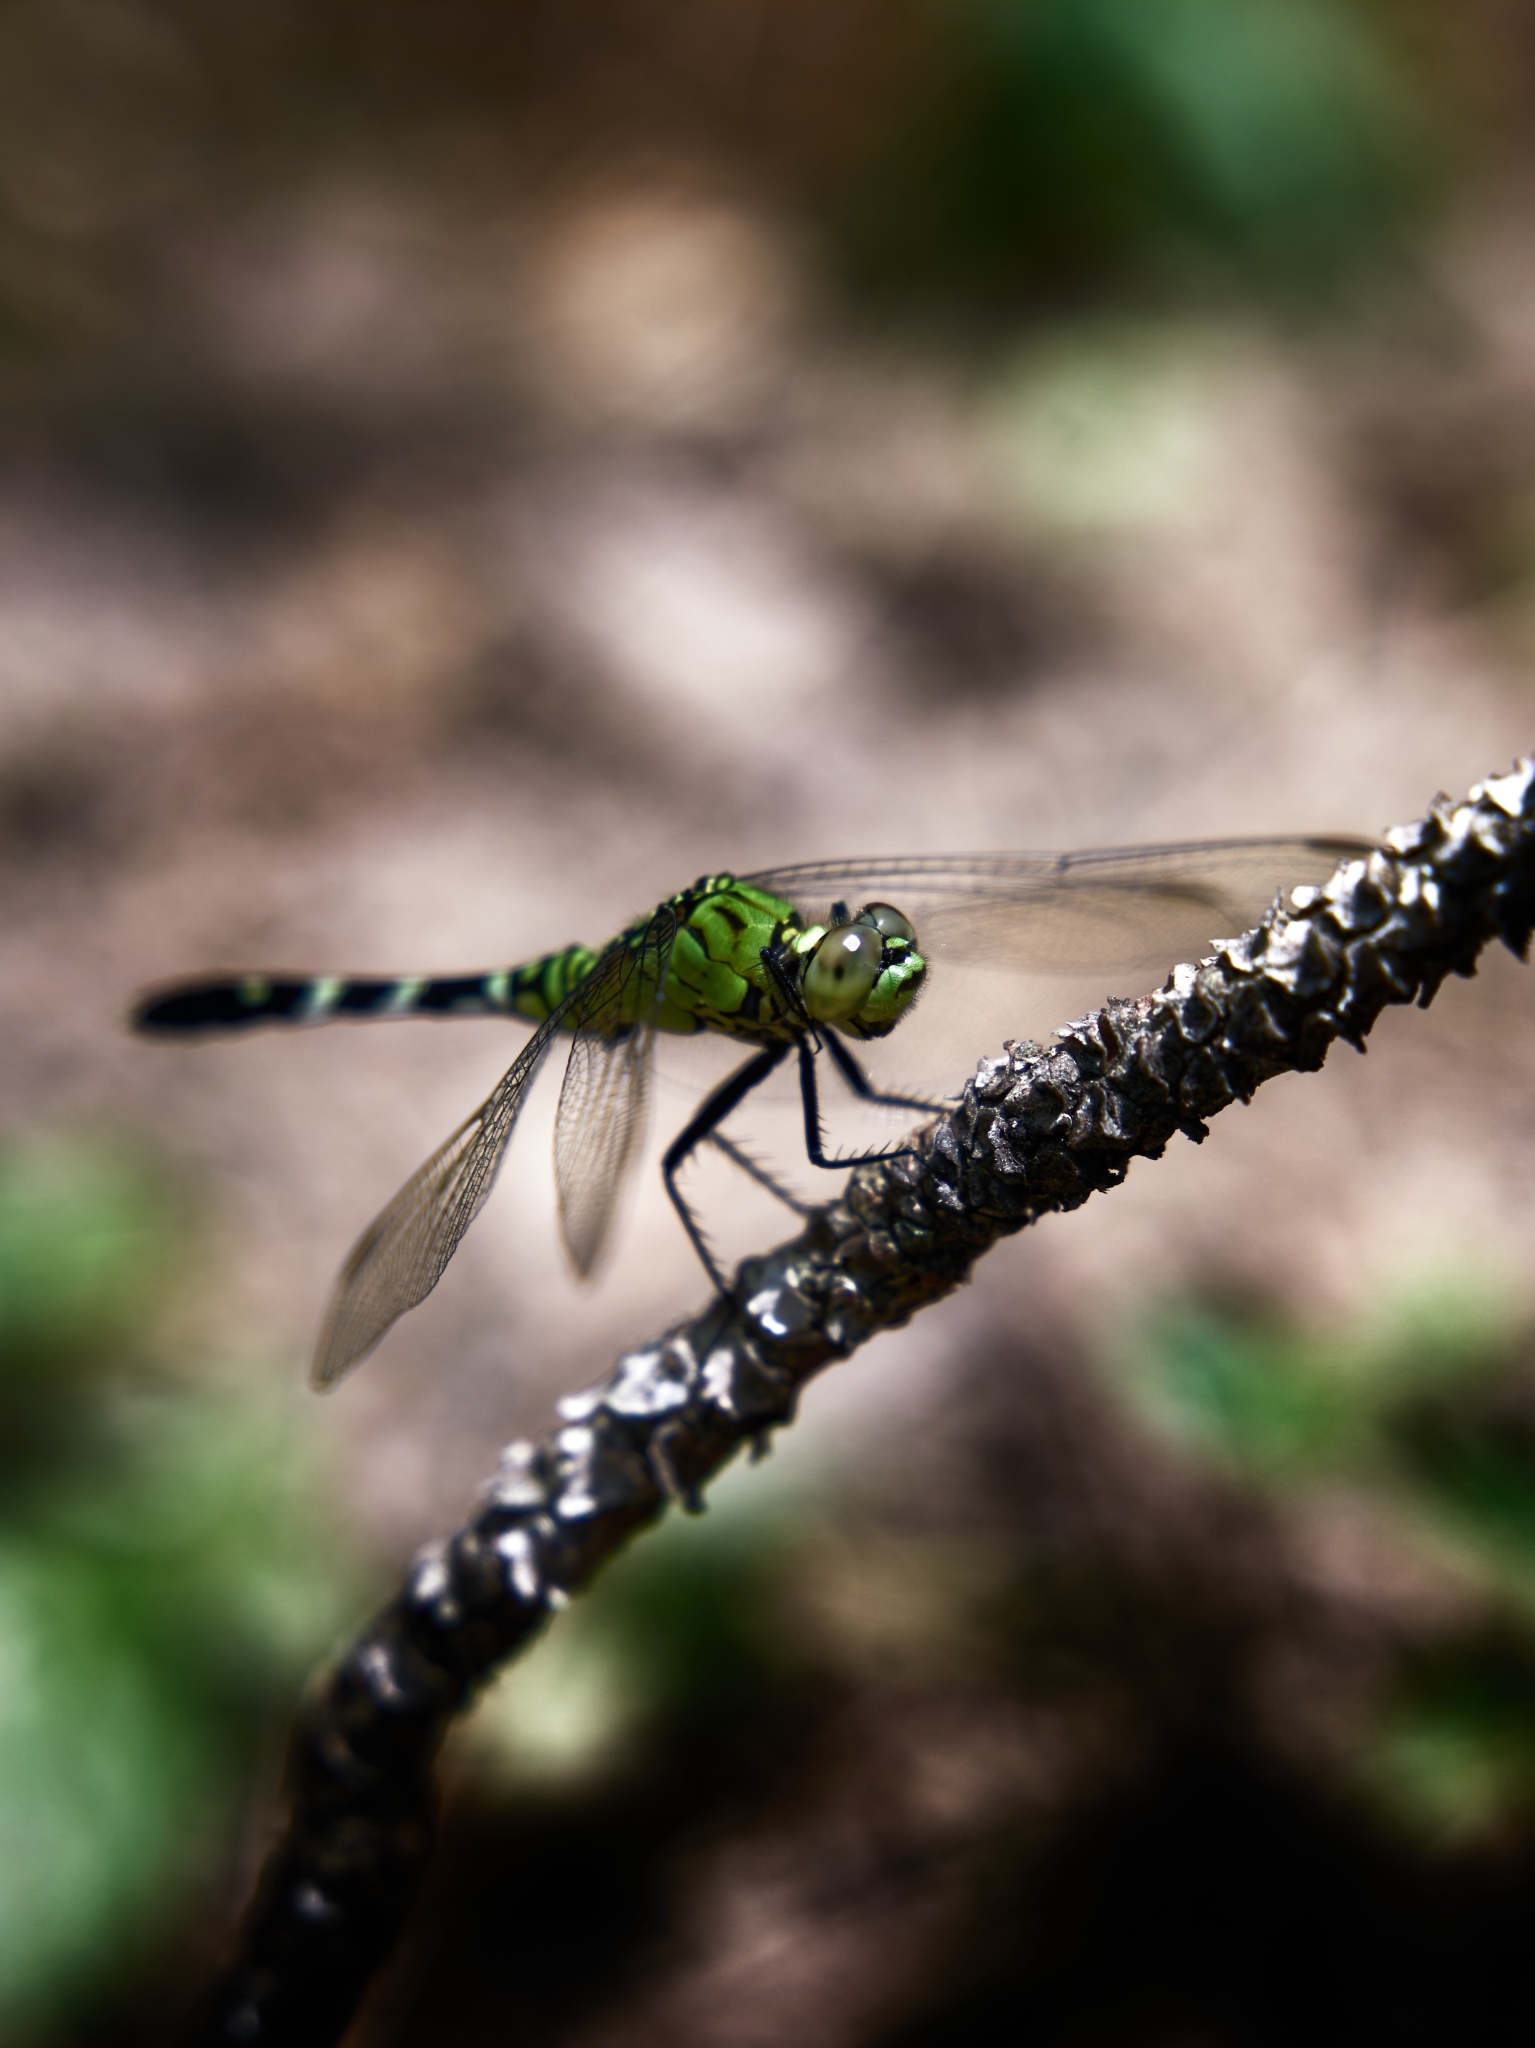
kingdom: Animalia
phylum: Arthropoda
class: Insecta
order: Odonata
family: Libellulidae
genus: Erythemis
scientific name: Erythemis simplicicollis
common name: Eastern pondhawk
